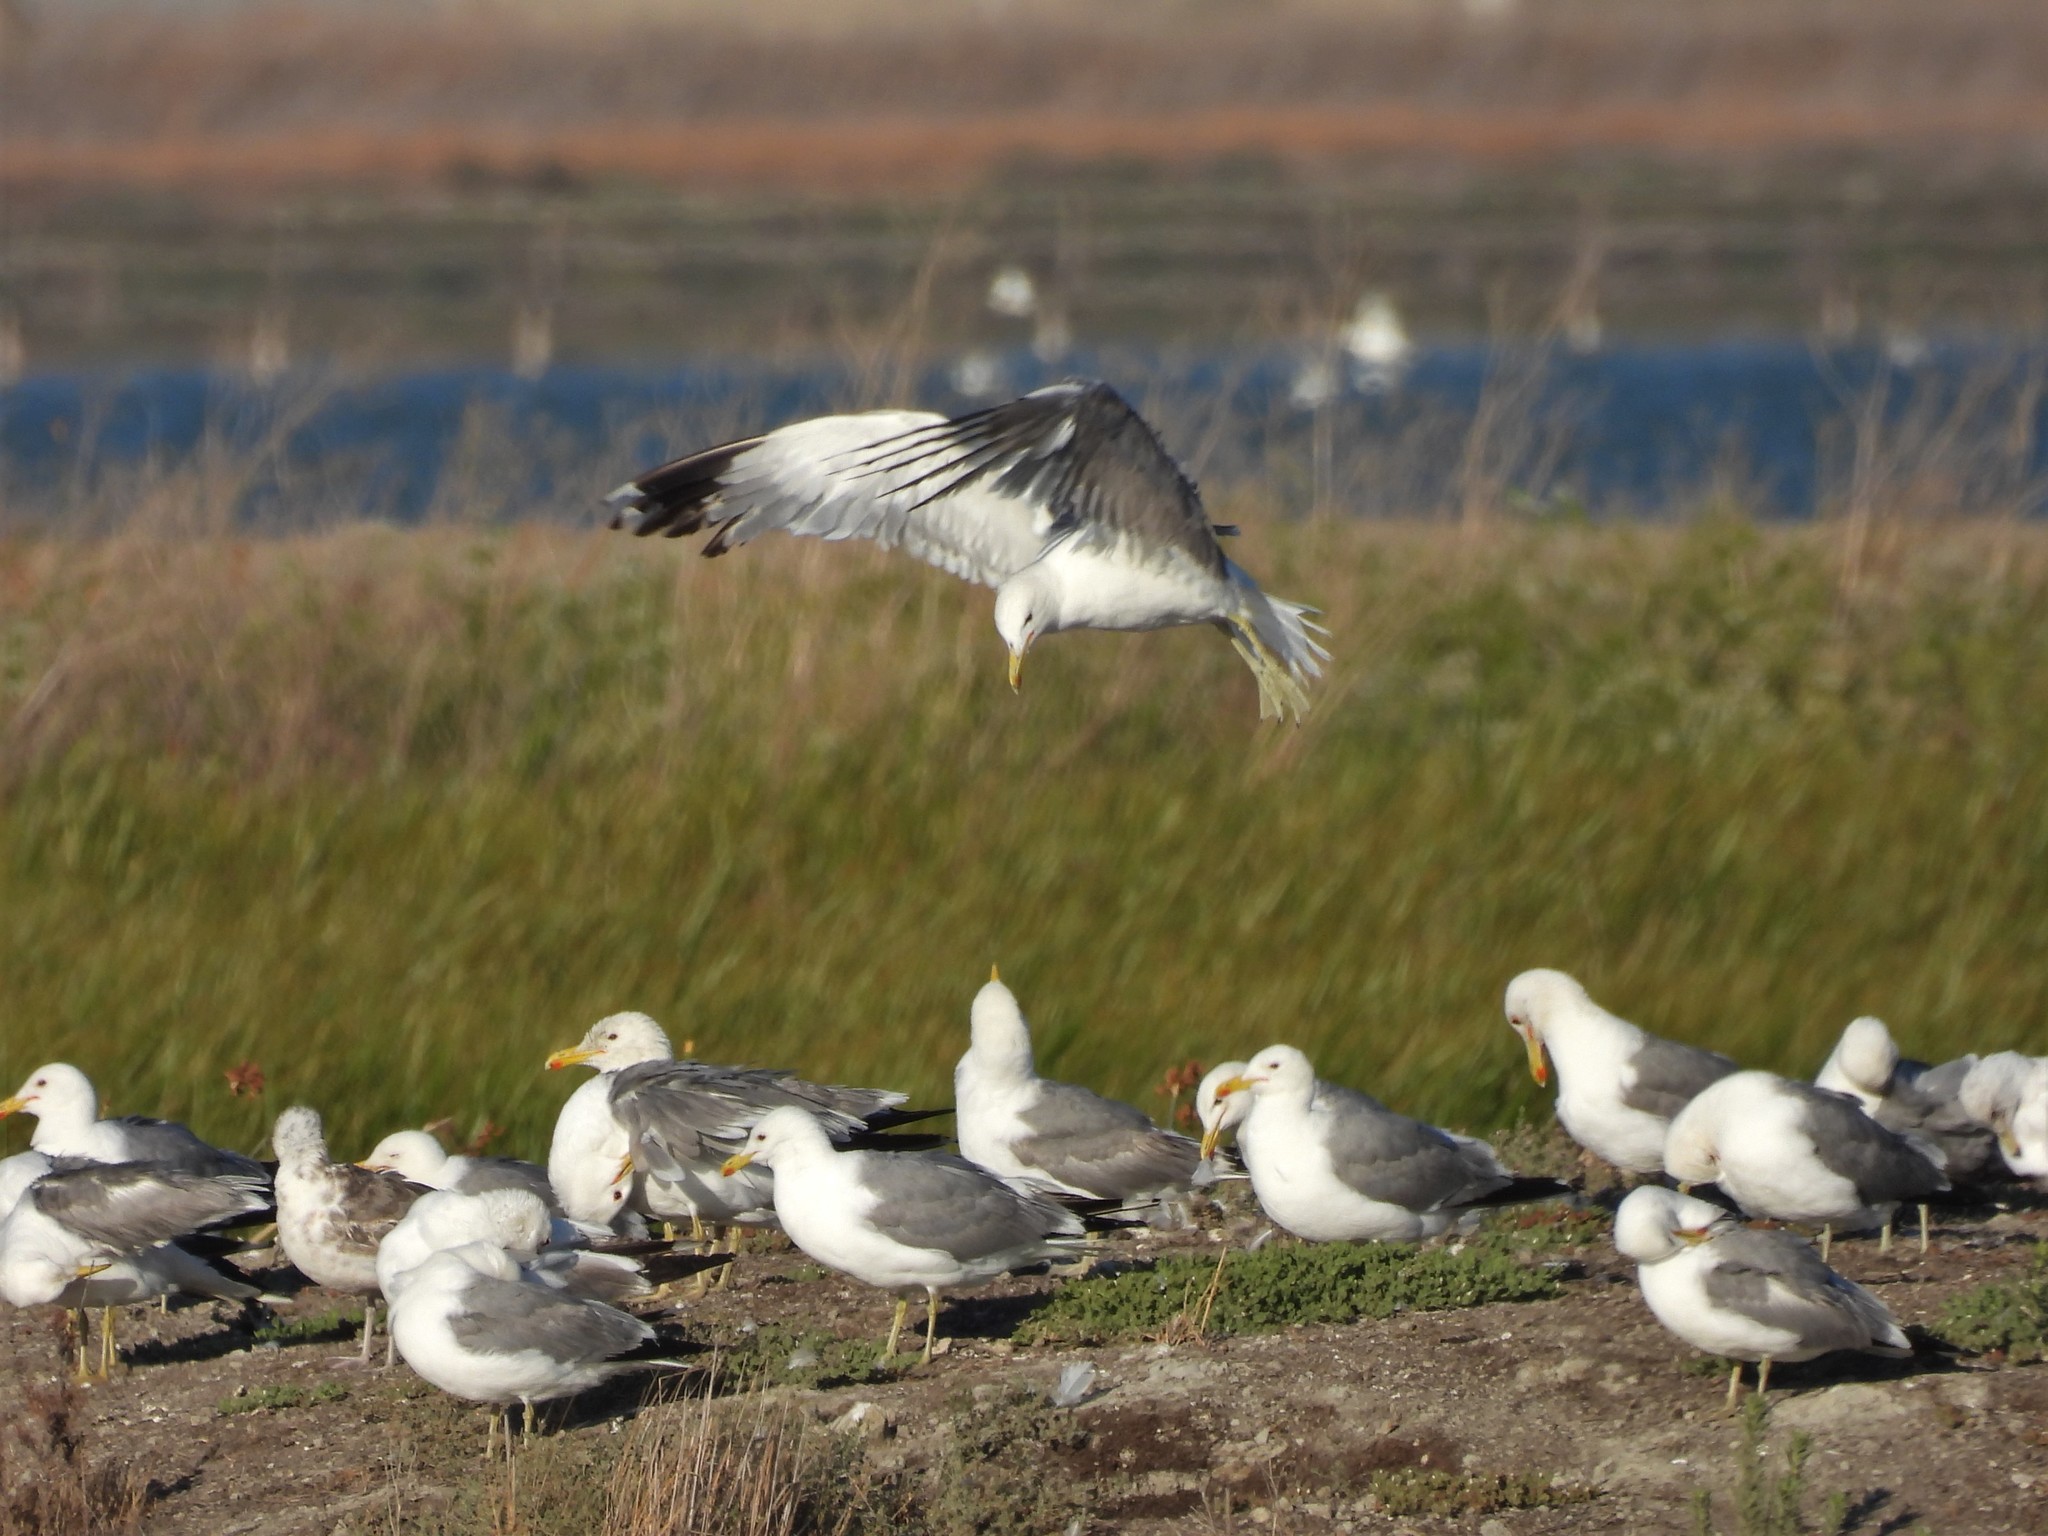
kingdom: Animalia
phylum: Chordata
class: Aves
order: Charadriiformes
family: Laridae
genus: Larus
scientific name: Larus californicus
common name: California gull
